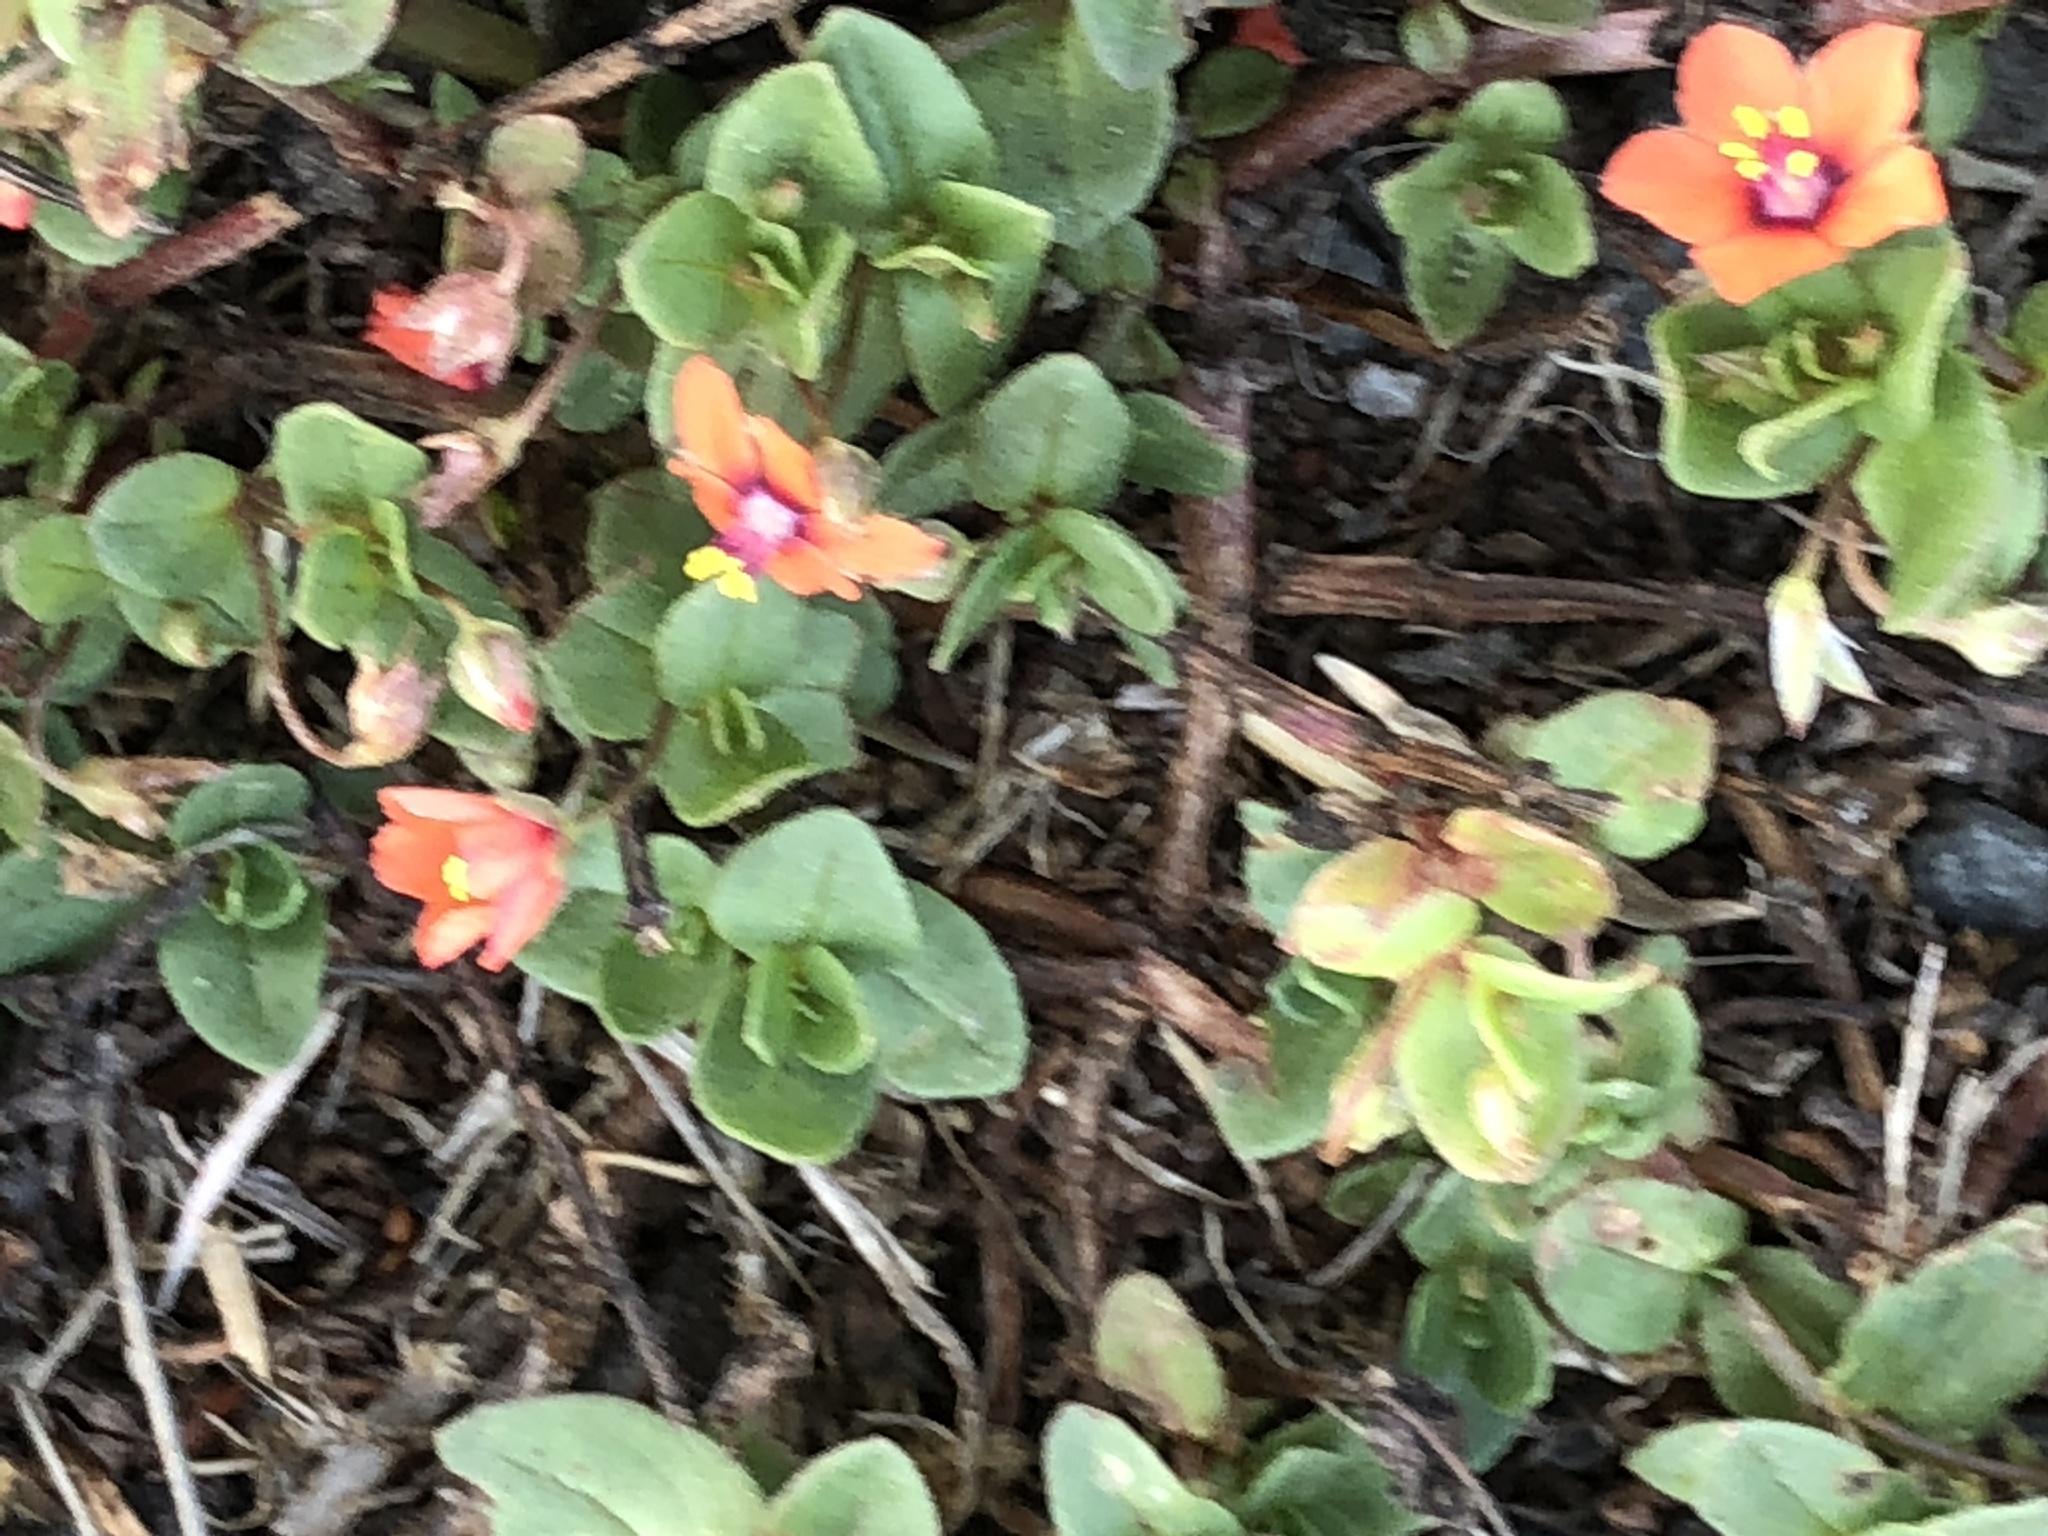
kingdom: Plantae
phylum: Tracheophyta
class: Magnoliopsida
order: Ericales
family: Primulaceae
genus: Lysimachia
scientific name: Lysimachia arvensis
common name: Scarlet pimpernel
